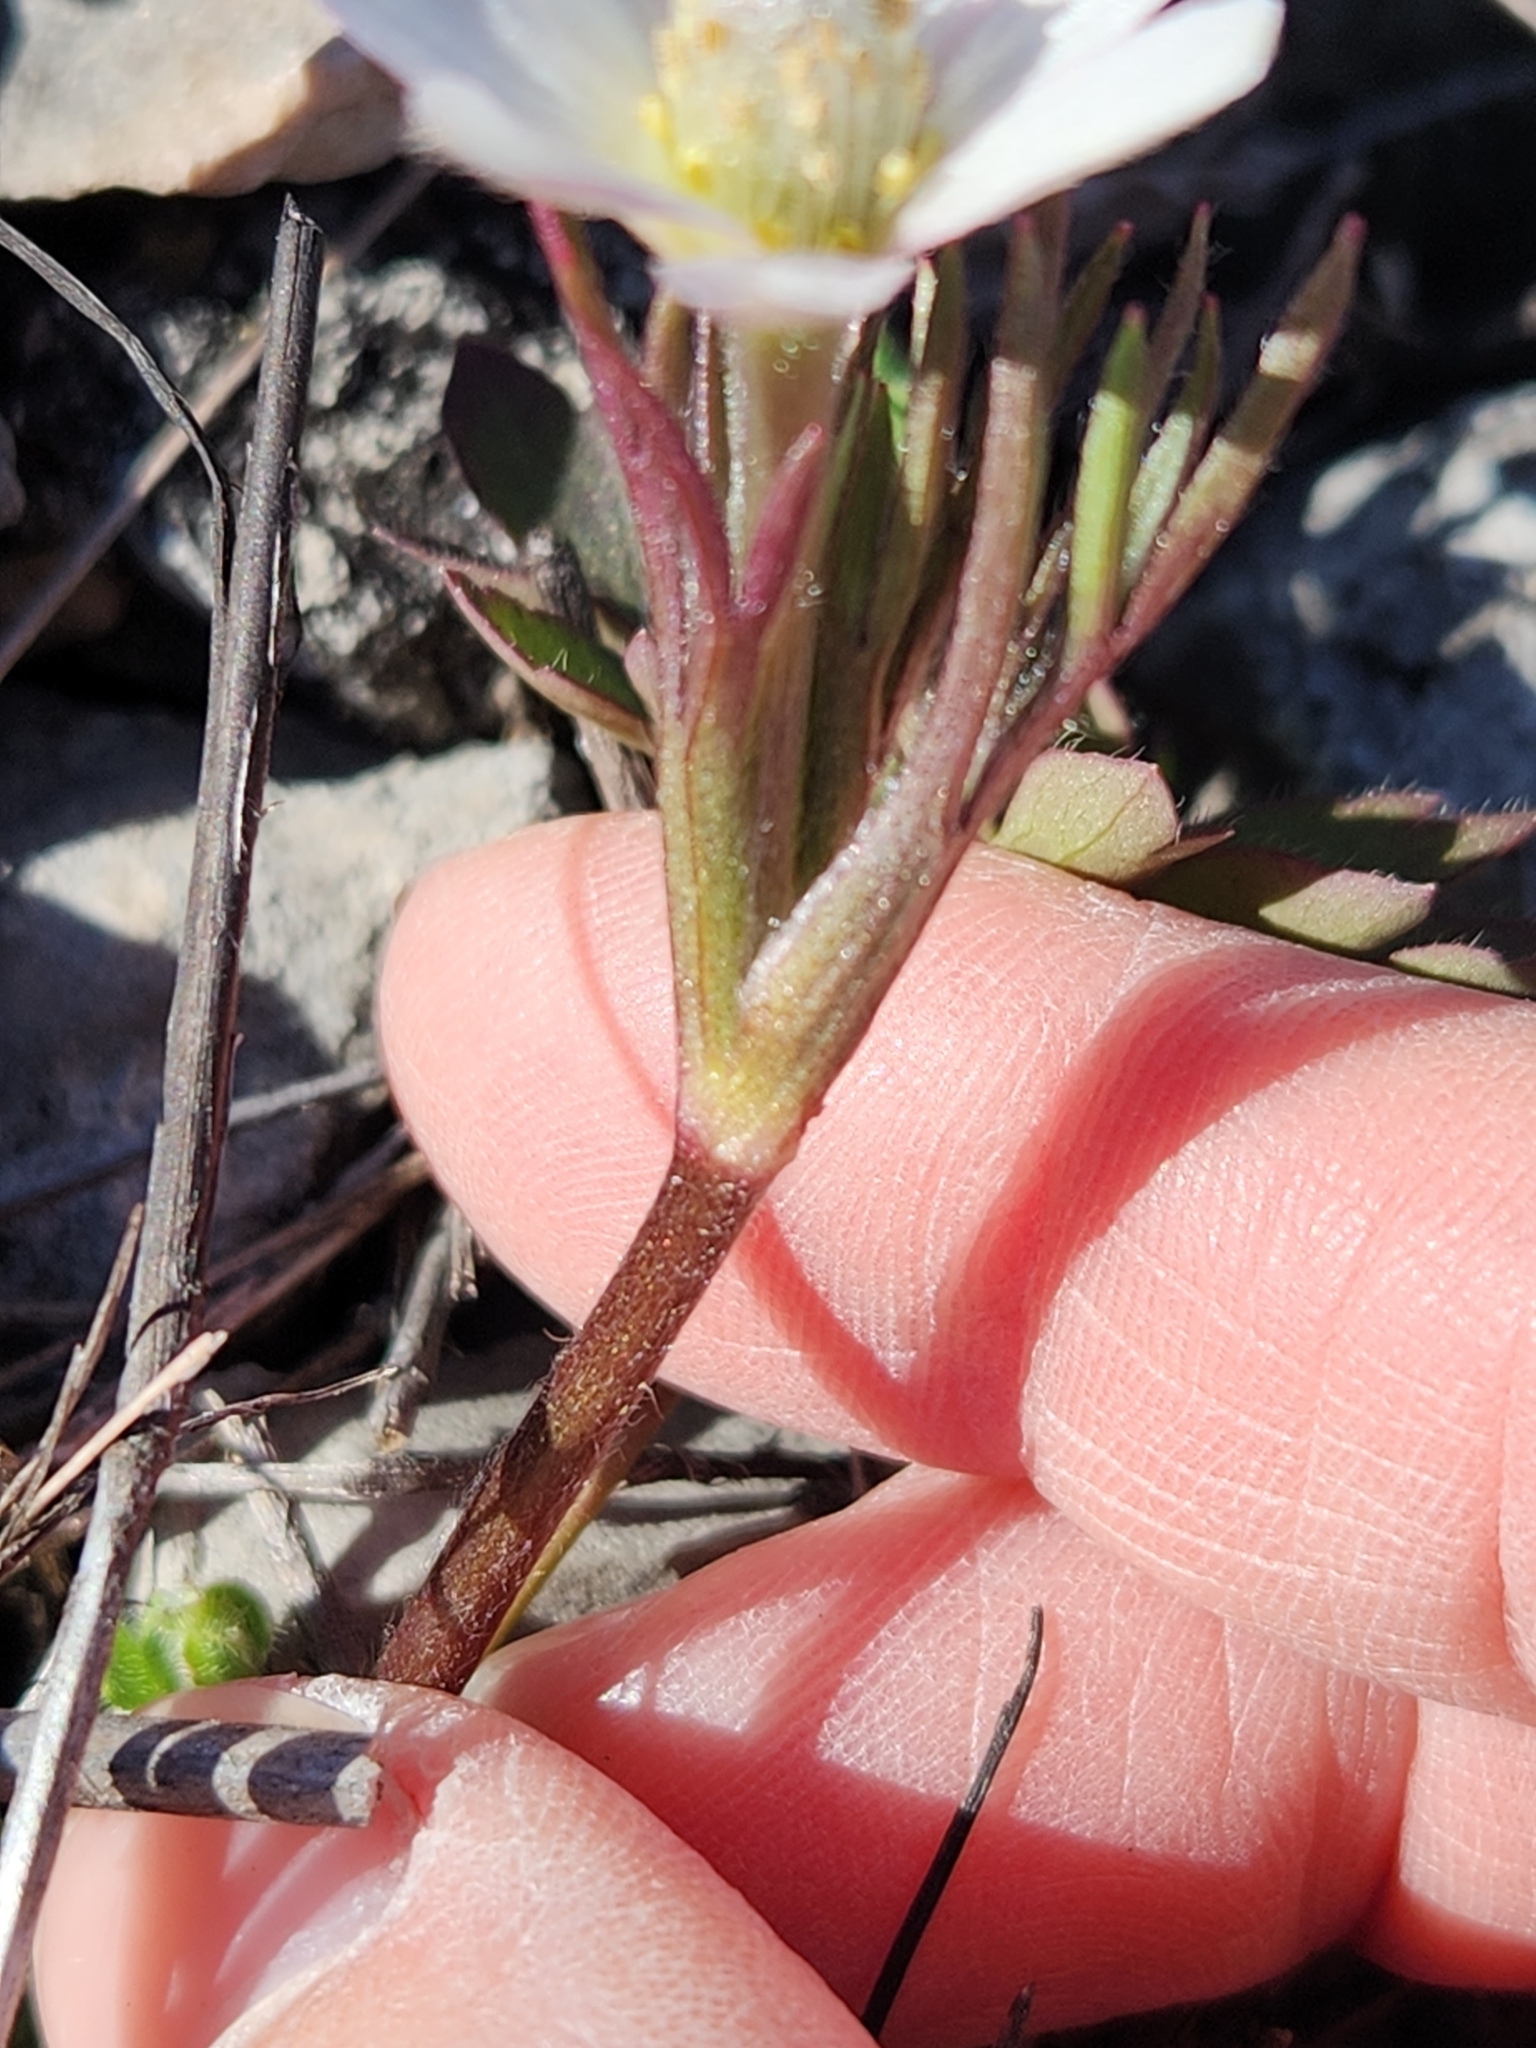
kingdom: Plantae
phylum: Tracheophyta
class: Magnoliopsida
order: Ranunculales
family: Ranunculaceae
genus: Anemone
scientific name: Anemone tuberosa
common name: Desert anemone
